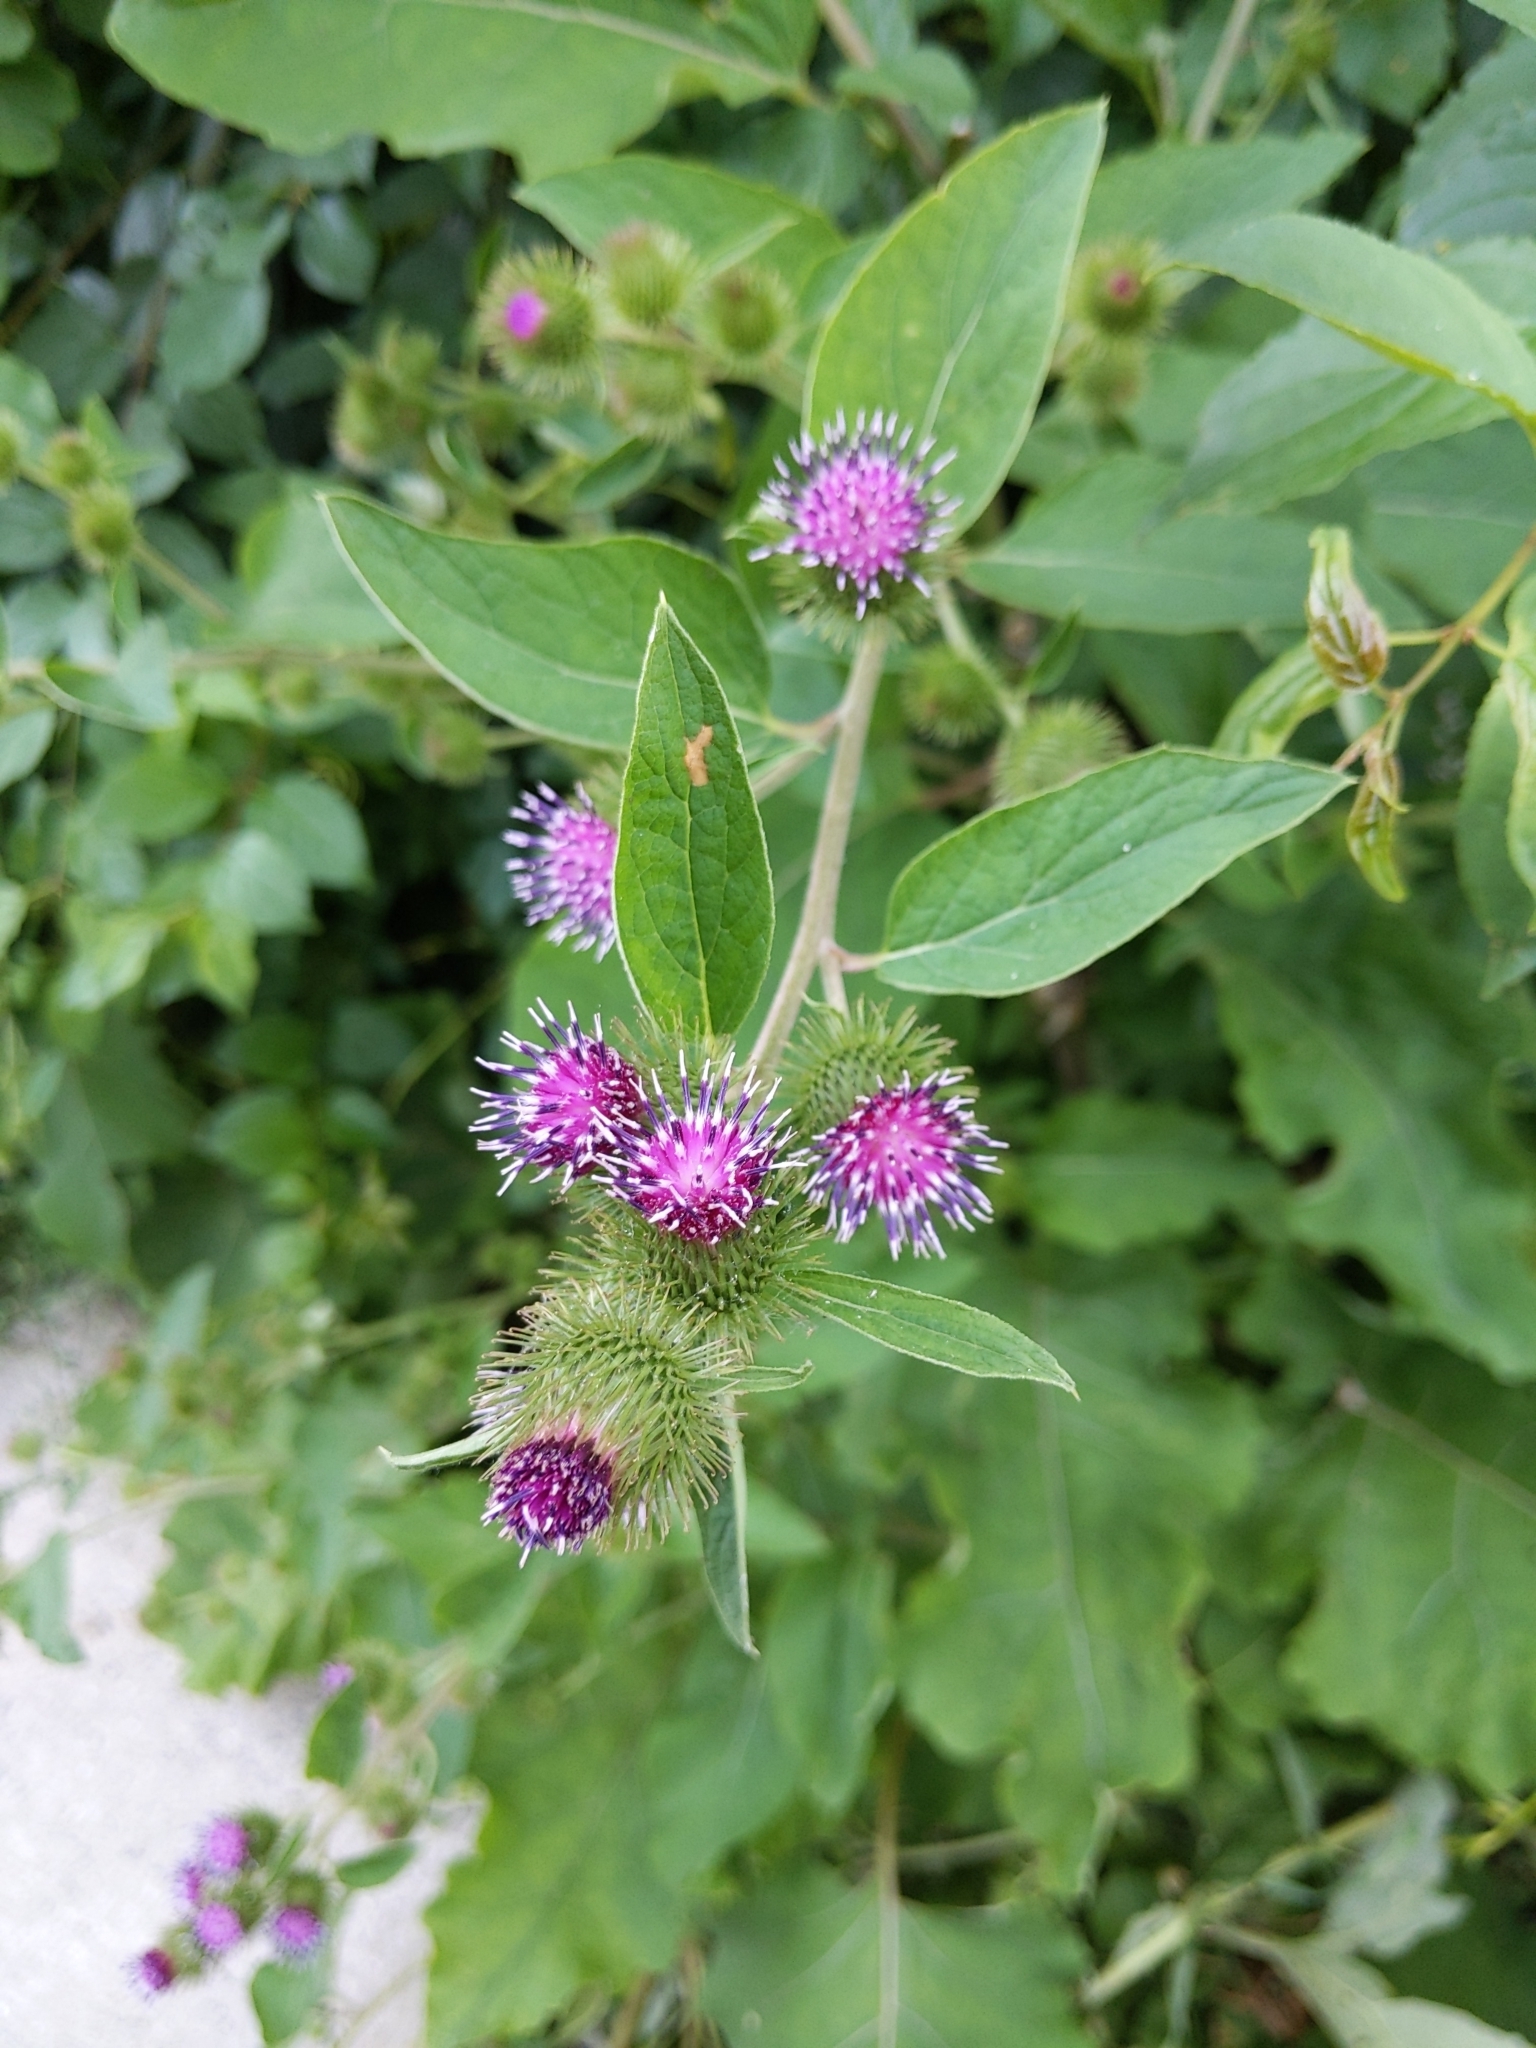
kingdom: Plantae
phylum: Tracheophyta
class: Magnoliopsida
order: Asterales
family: Asteraceae
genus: Arctium
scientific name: Arctium minus
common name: Lesser burdock
